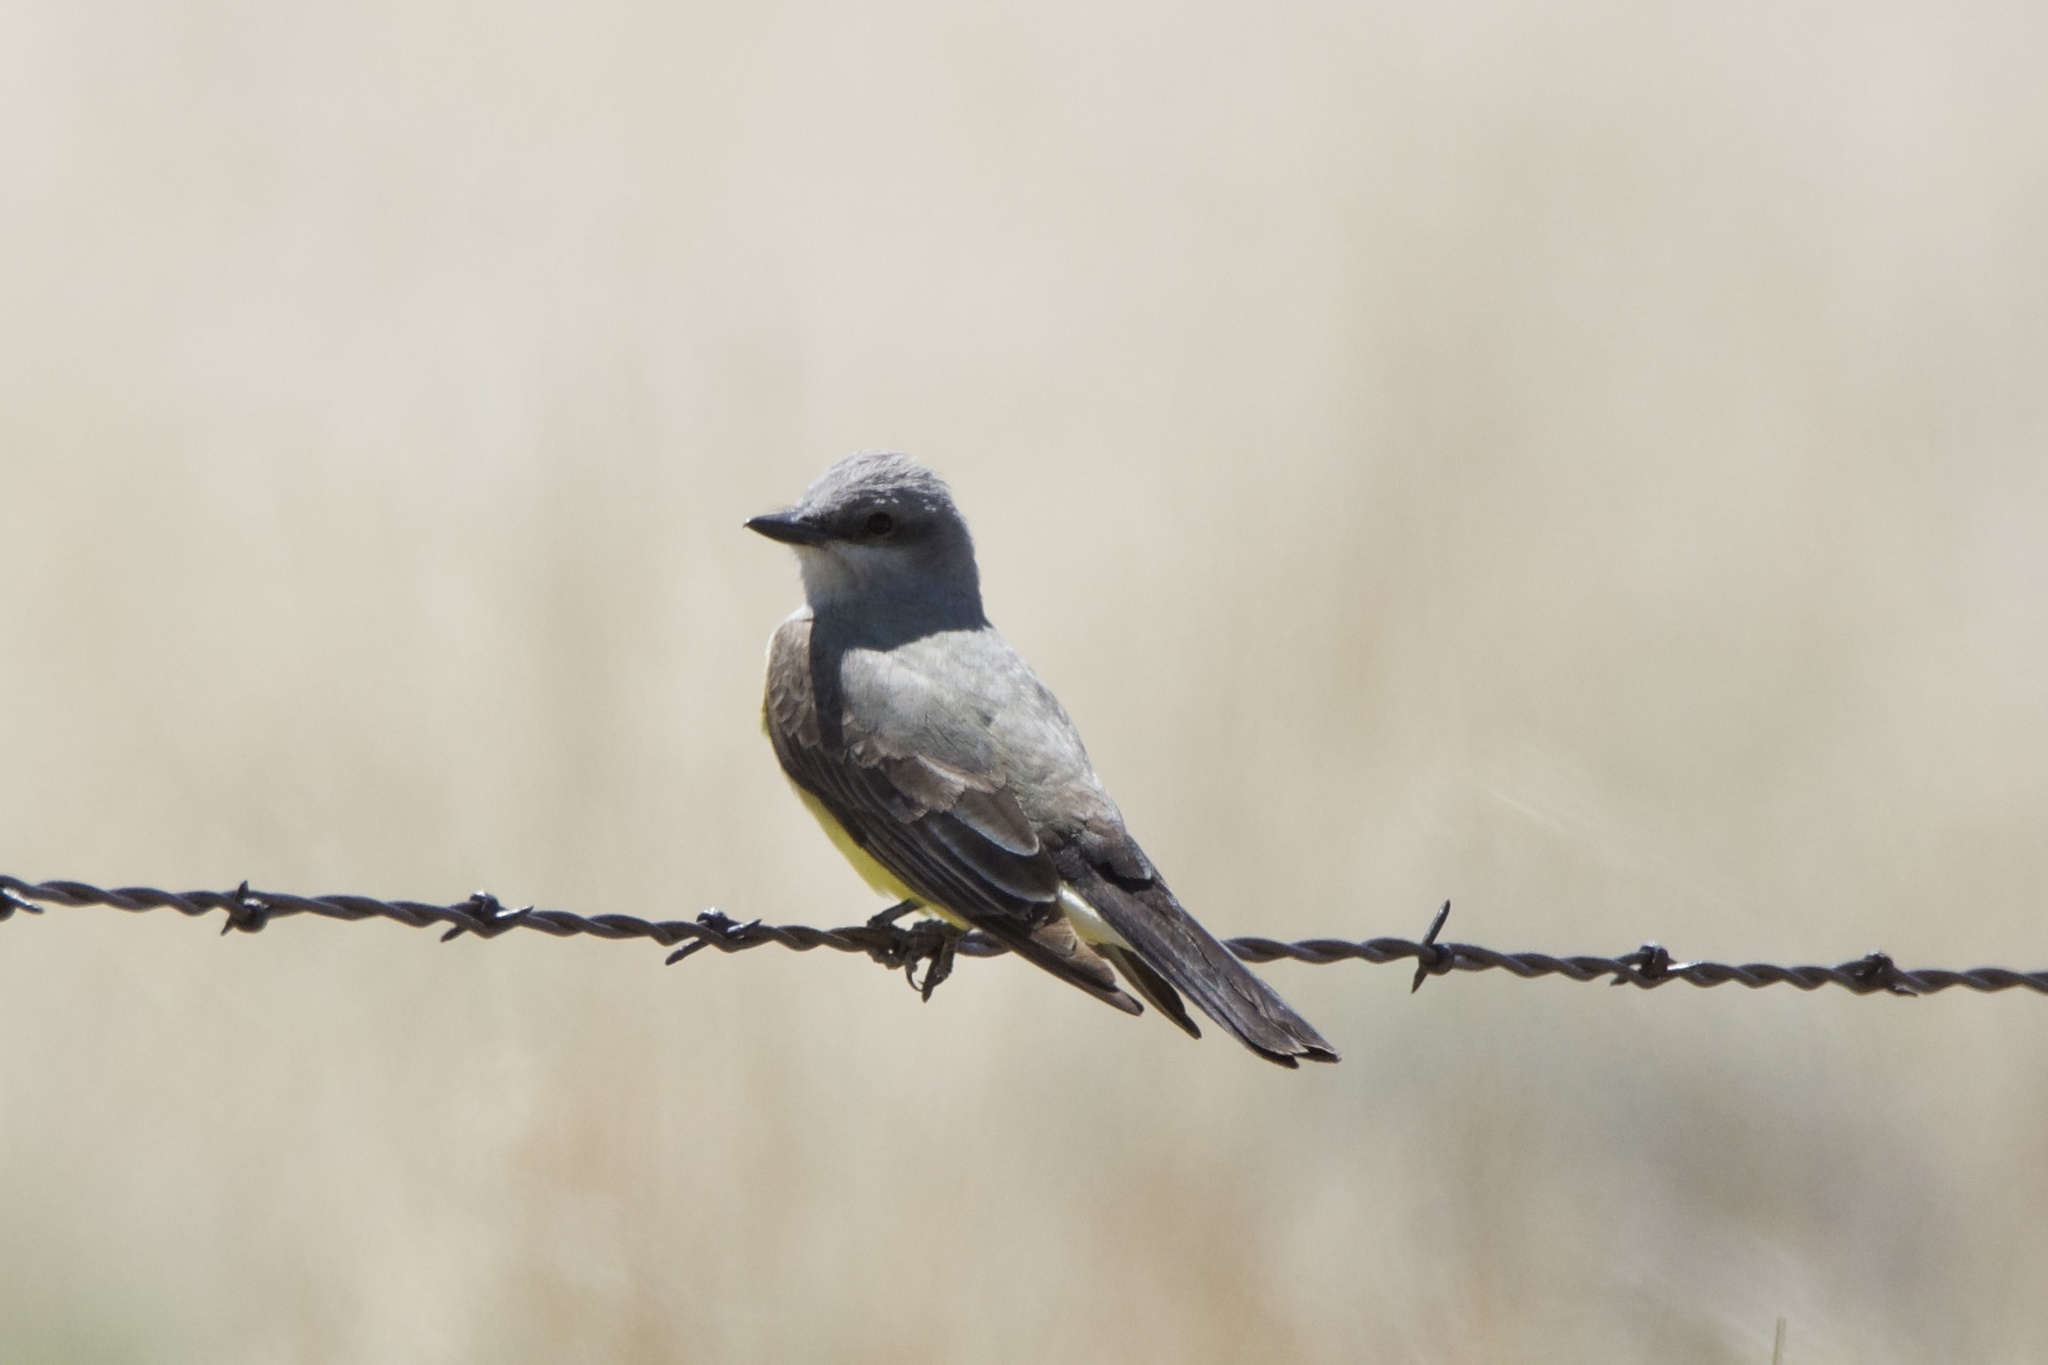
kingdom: Animalia
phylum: Chordata
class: Aves
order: Passeriformes
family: Tyrannidae
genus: Tyrannus
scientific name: Tyrannus verticalis
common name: Western kingbird
